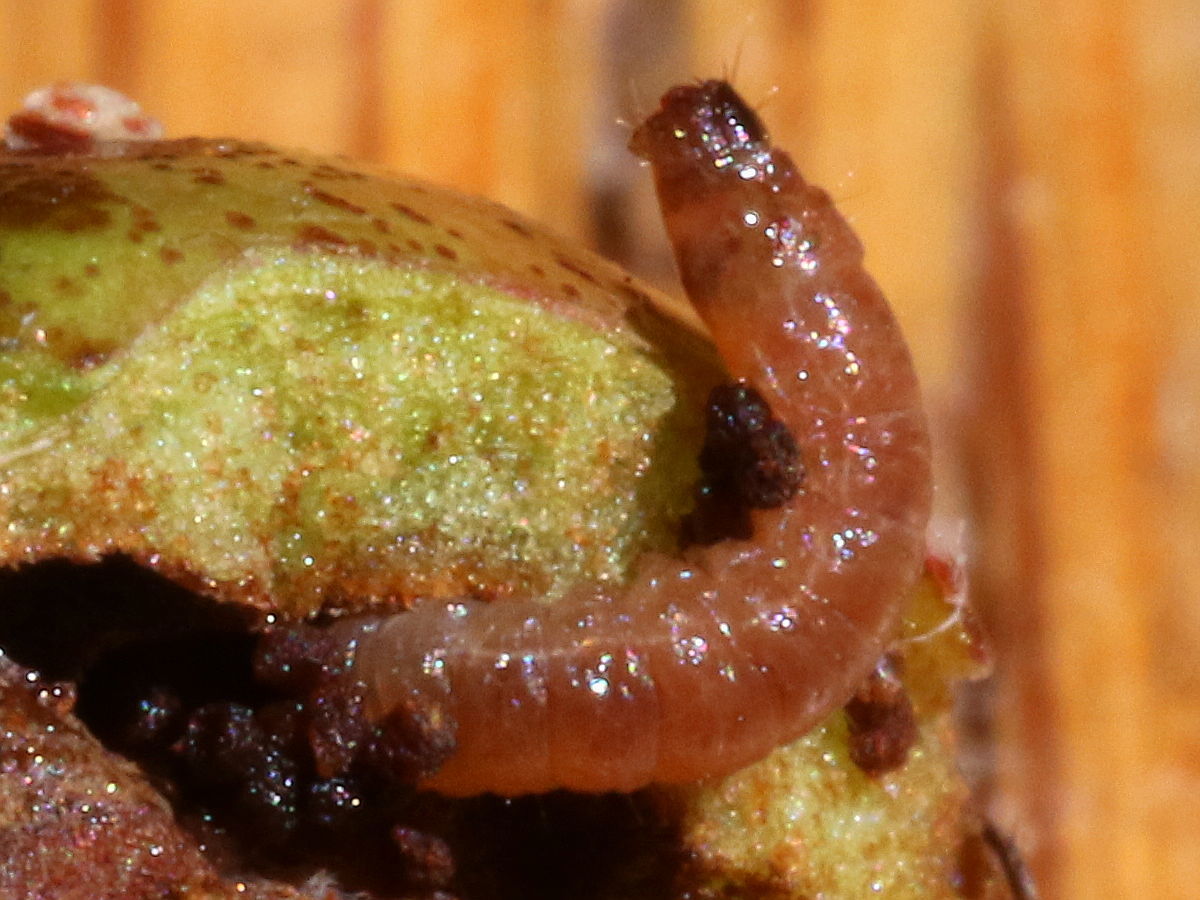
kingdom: Animalia
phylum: Arthropoda
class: Insecta
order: Lepidoptera
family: Tortricidae
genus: Cydia
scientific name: Cydia pomonella
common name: Codling moth
